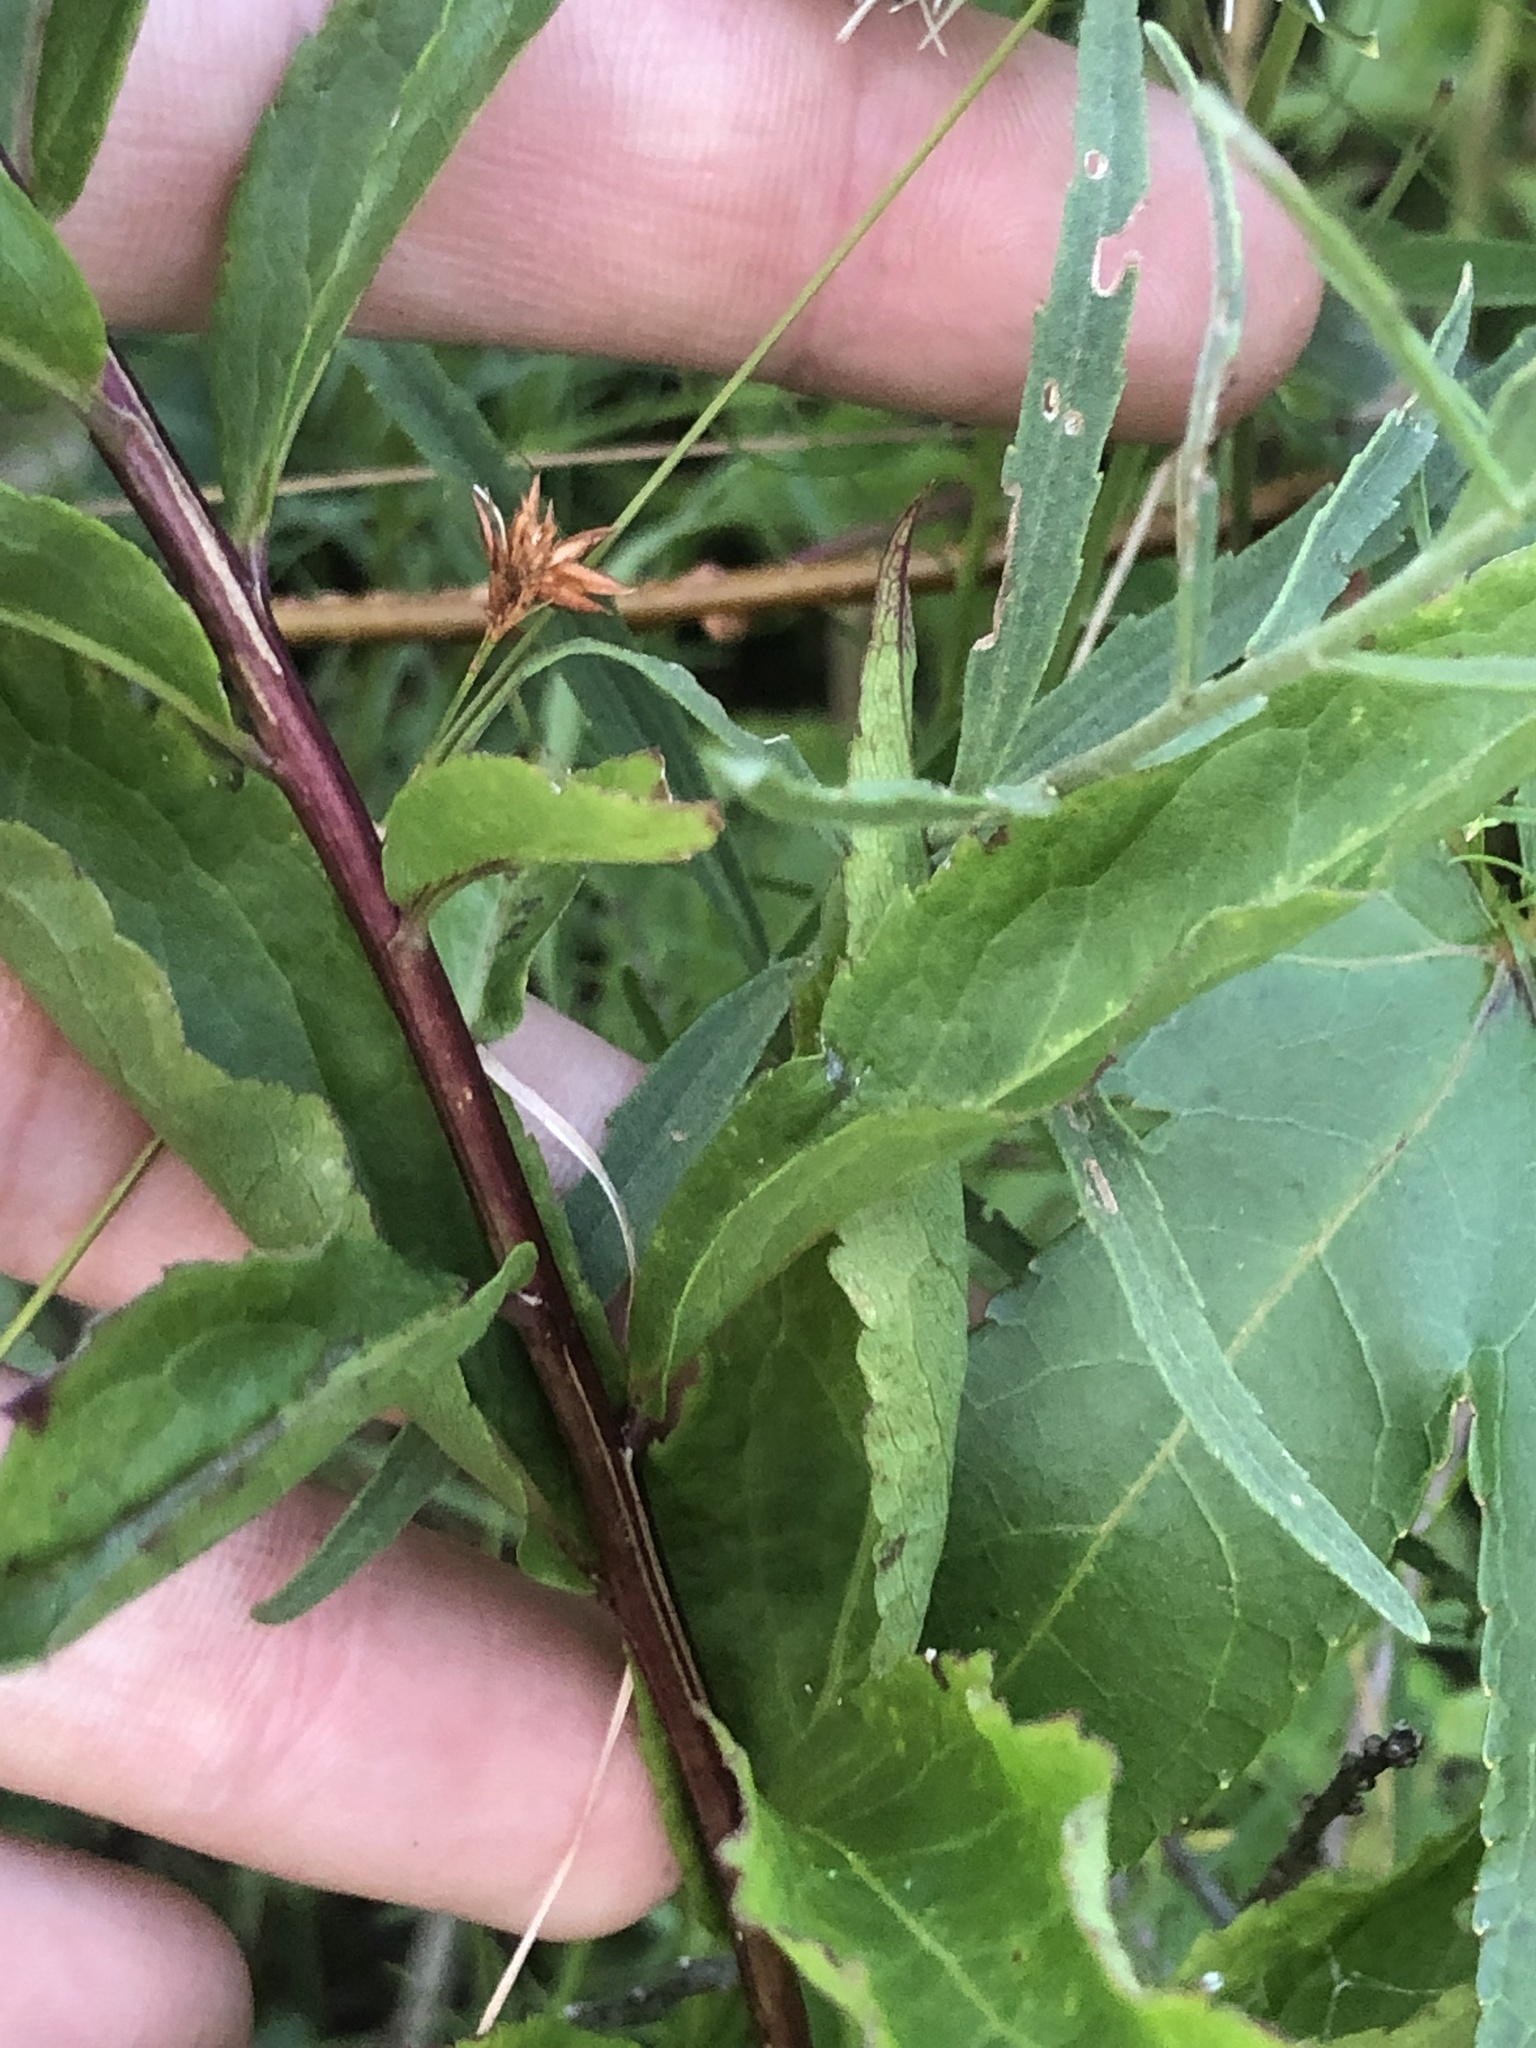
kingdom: Plantae
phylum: Tracheophyta
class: Magnoliopsida
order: Asterales
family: Asteraceae
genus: Solidago
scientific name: Solidago latissimifolia
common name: Elliott's goldenrod
